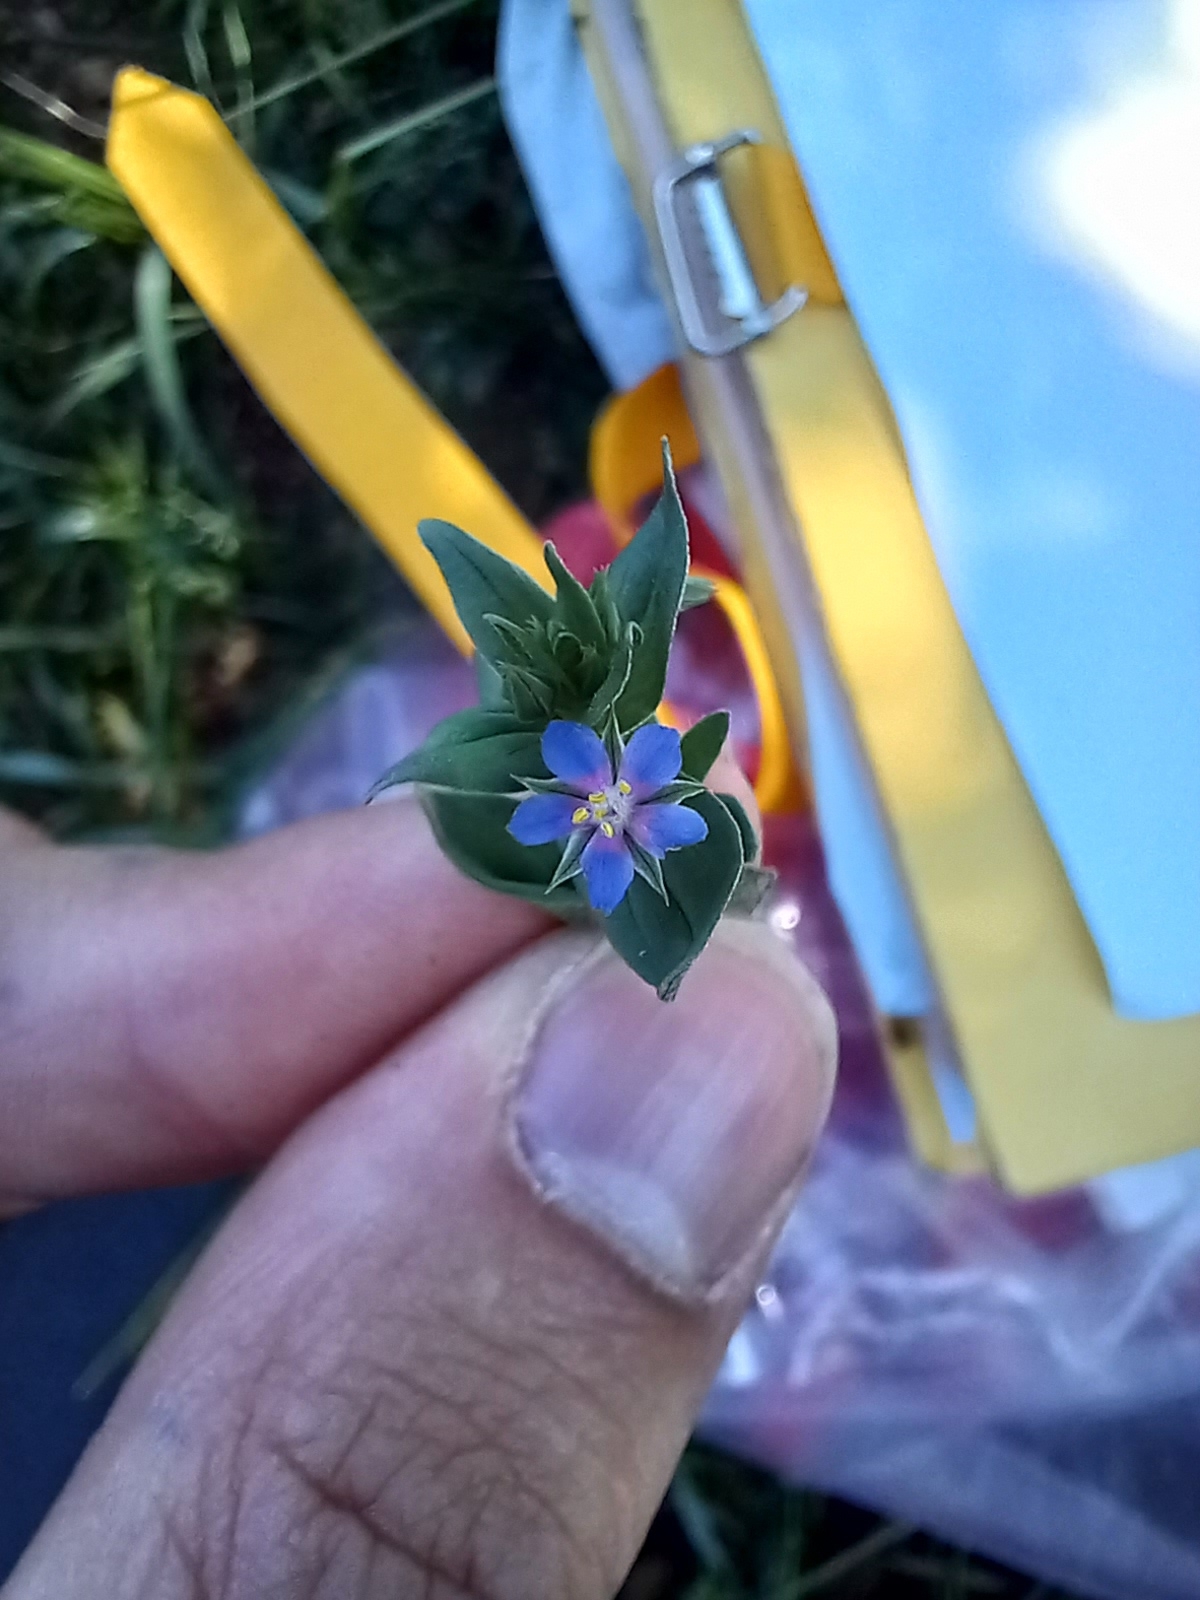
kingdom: Plantae
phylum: Tracheophyta
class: Magnoliopsida
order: Ericales
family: Primulaceae
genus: Lysimachia
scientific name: Lysimachia foemina
